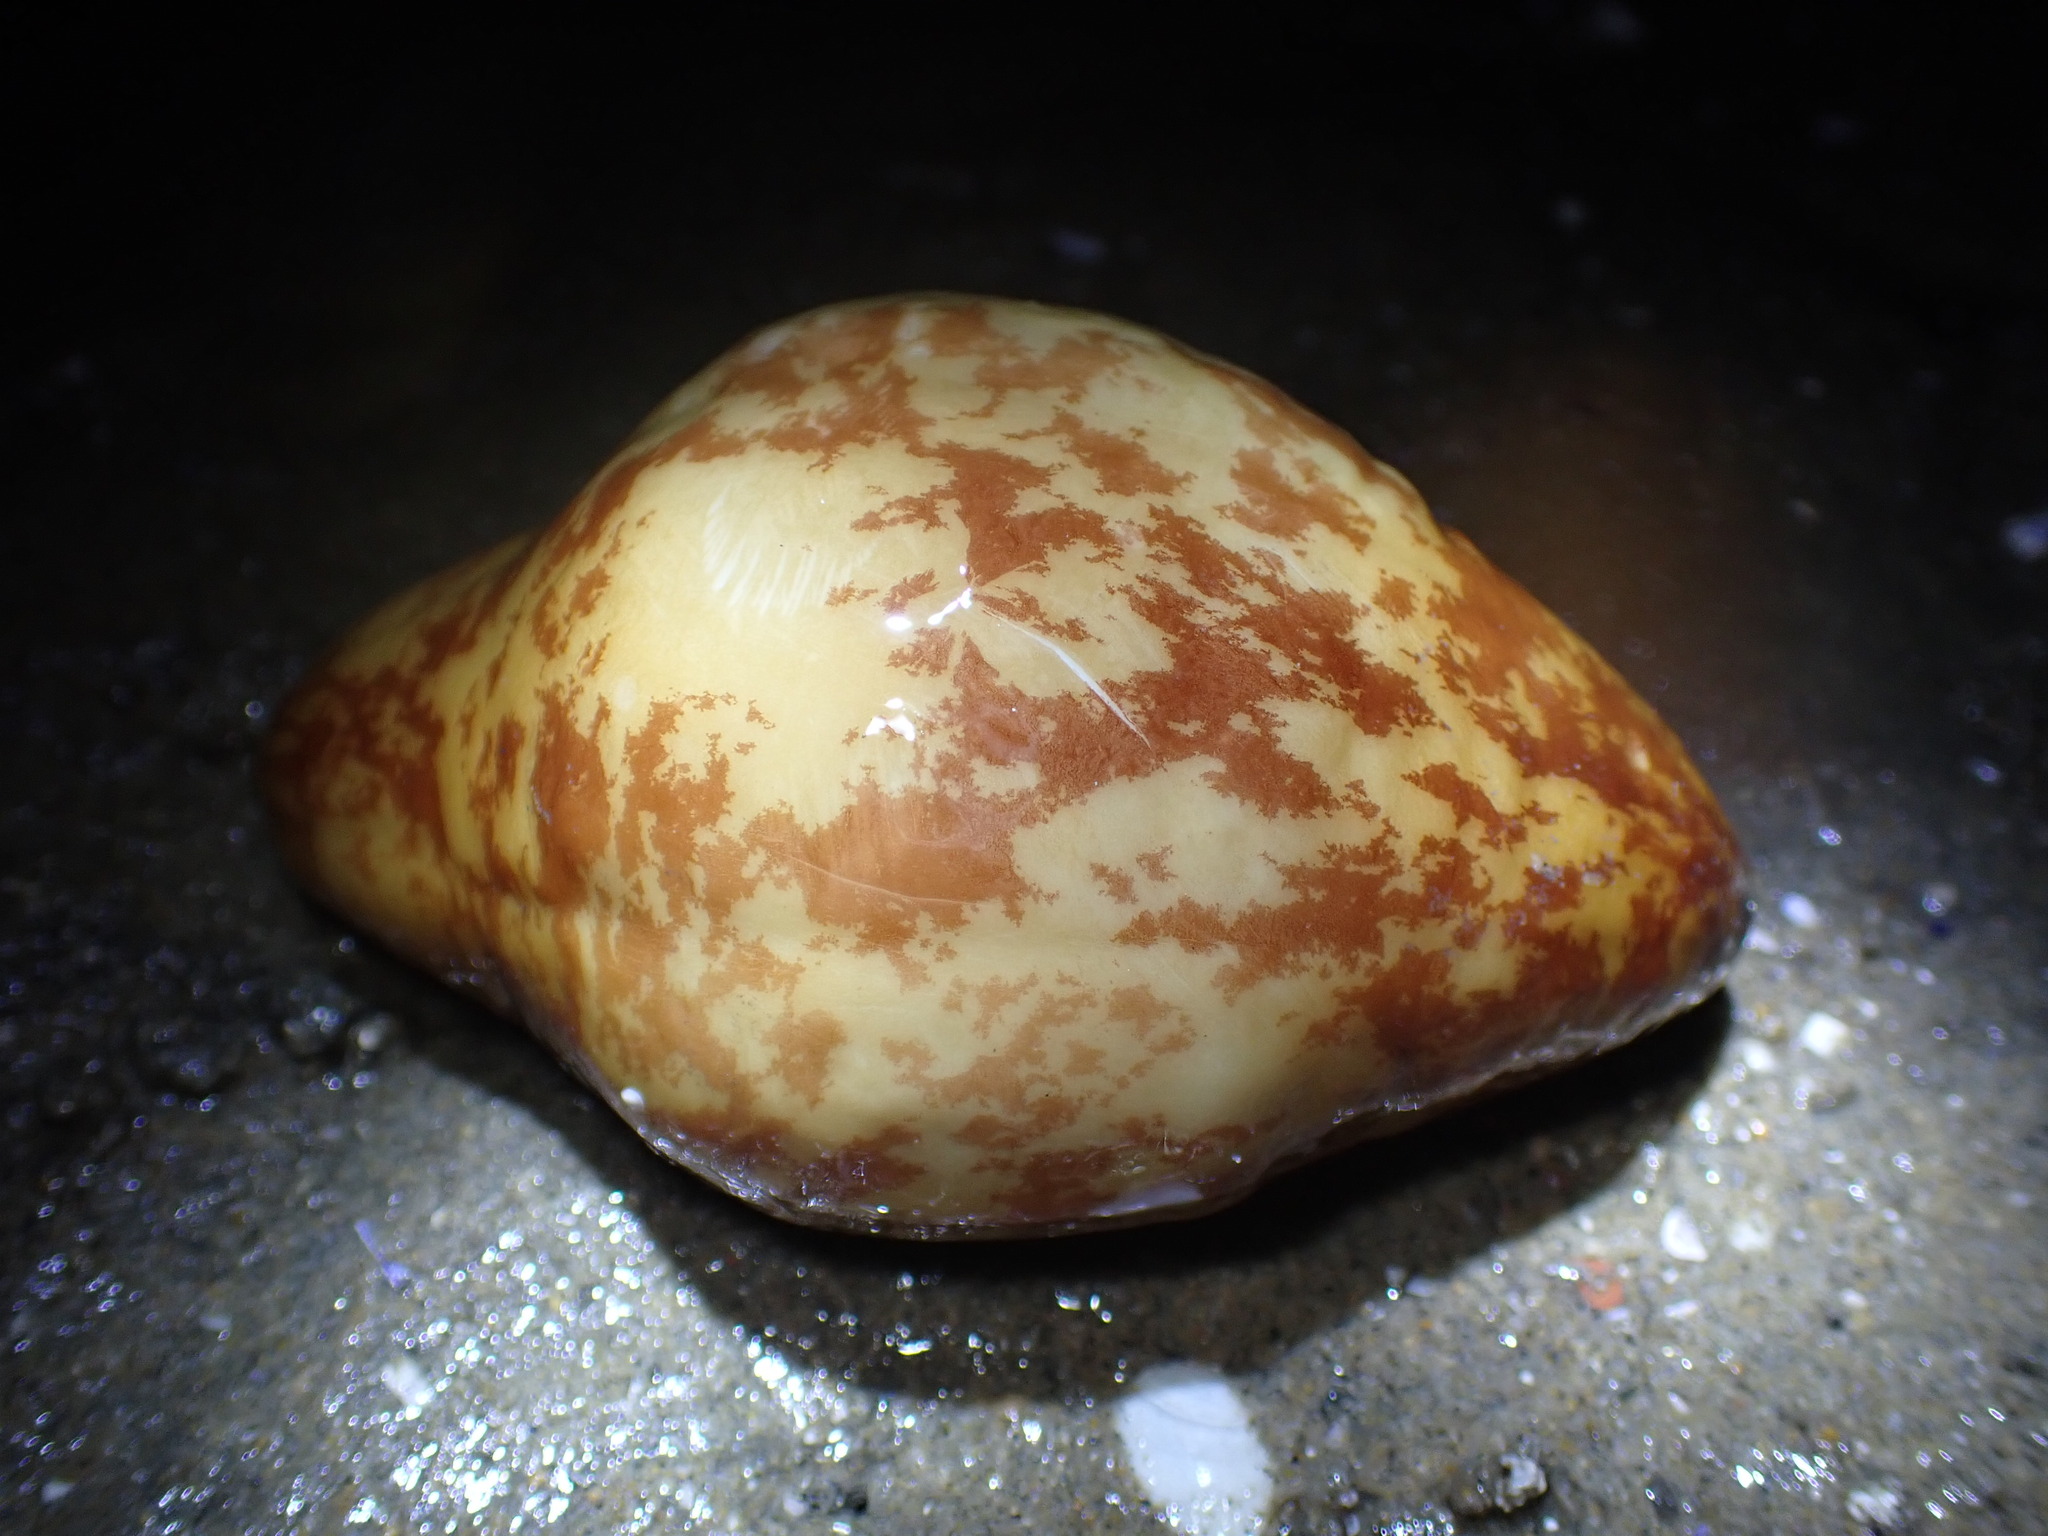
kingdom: Animalia
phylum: Echinodermata
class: Holothuroidea
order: Molpadida
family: Caudinidae
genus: Caudina
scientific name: Caudina arenicola
